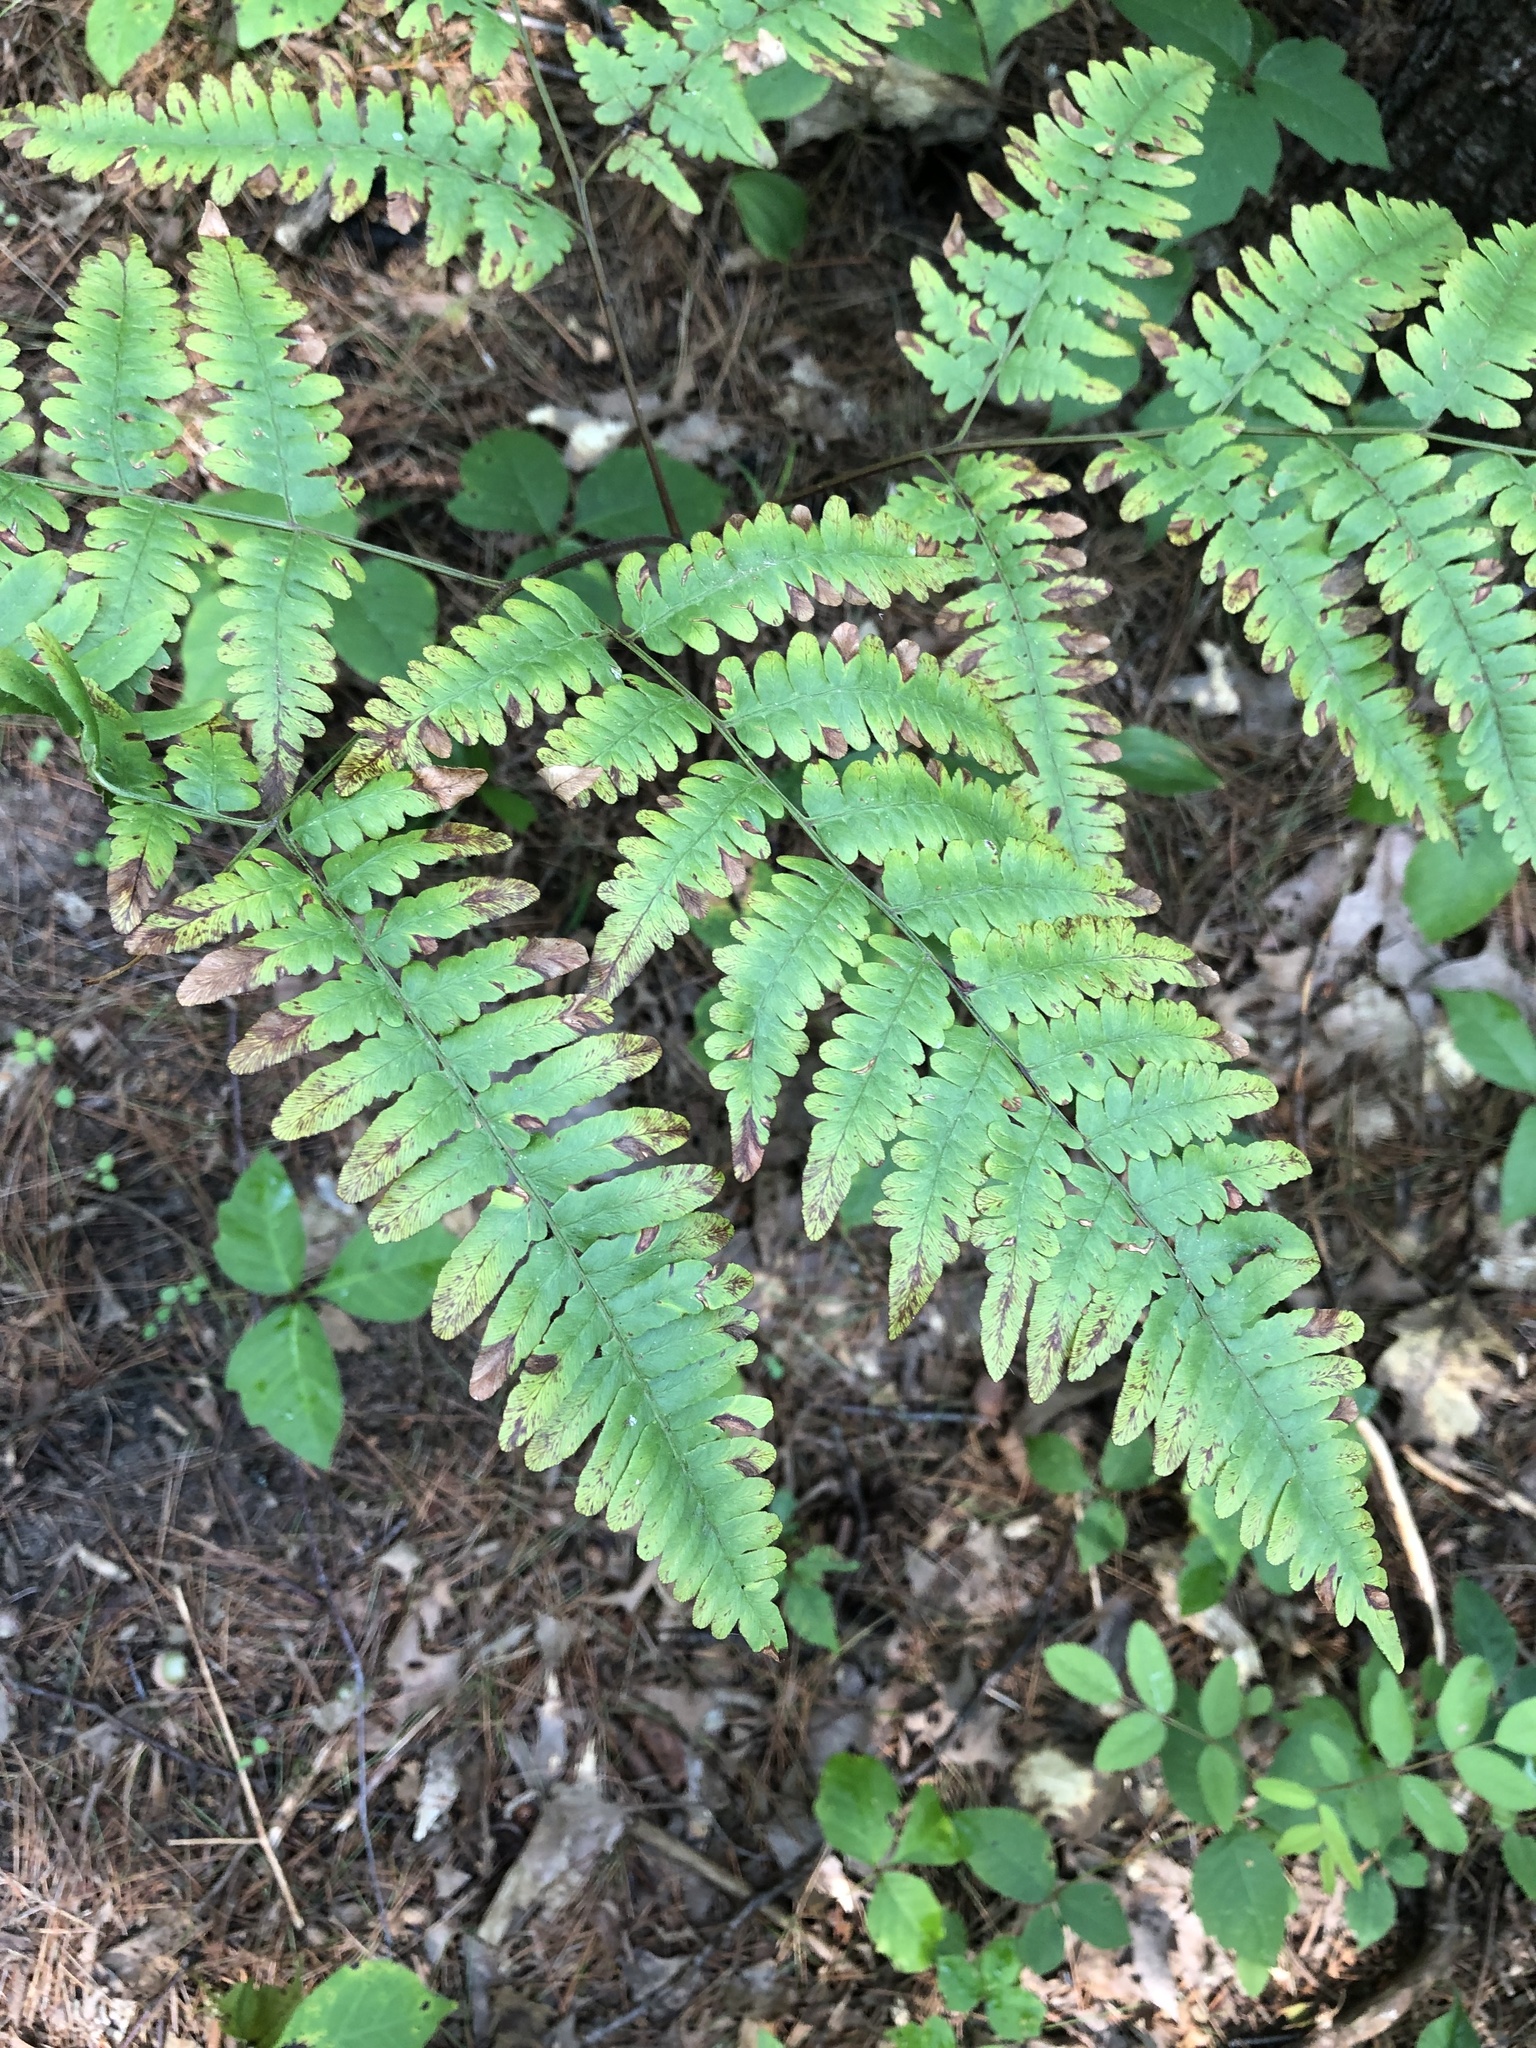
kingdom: Plantae
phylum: Tracheophyta
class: Polypodiopsida
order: Polypodiales
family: Dennstaedtiaceae
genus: Pteridium
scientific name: Pteridium aquilinum
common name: Bracken
